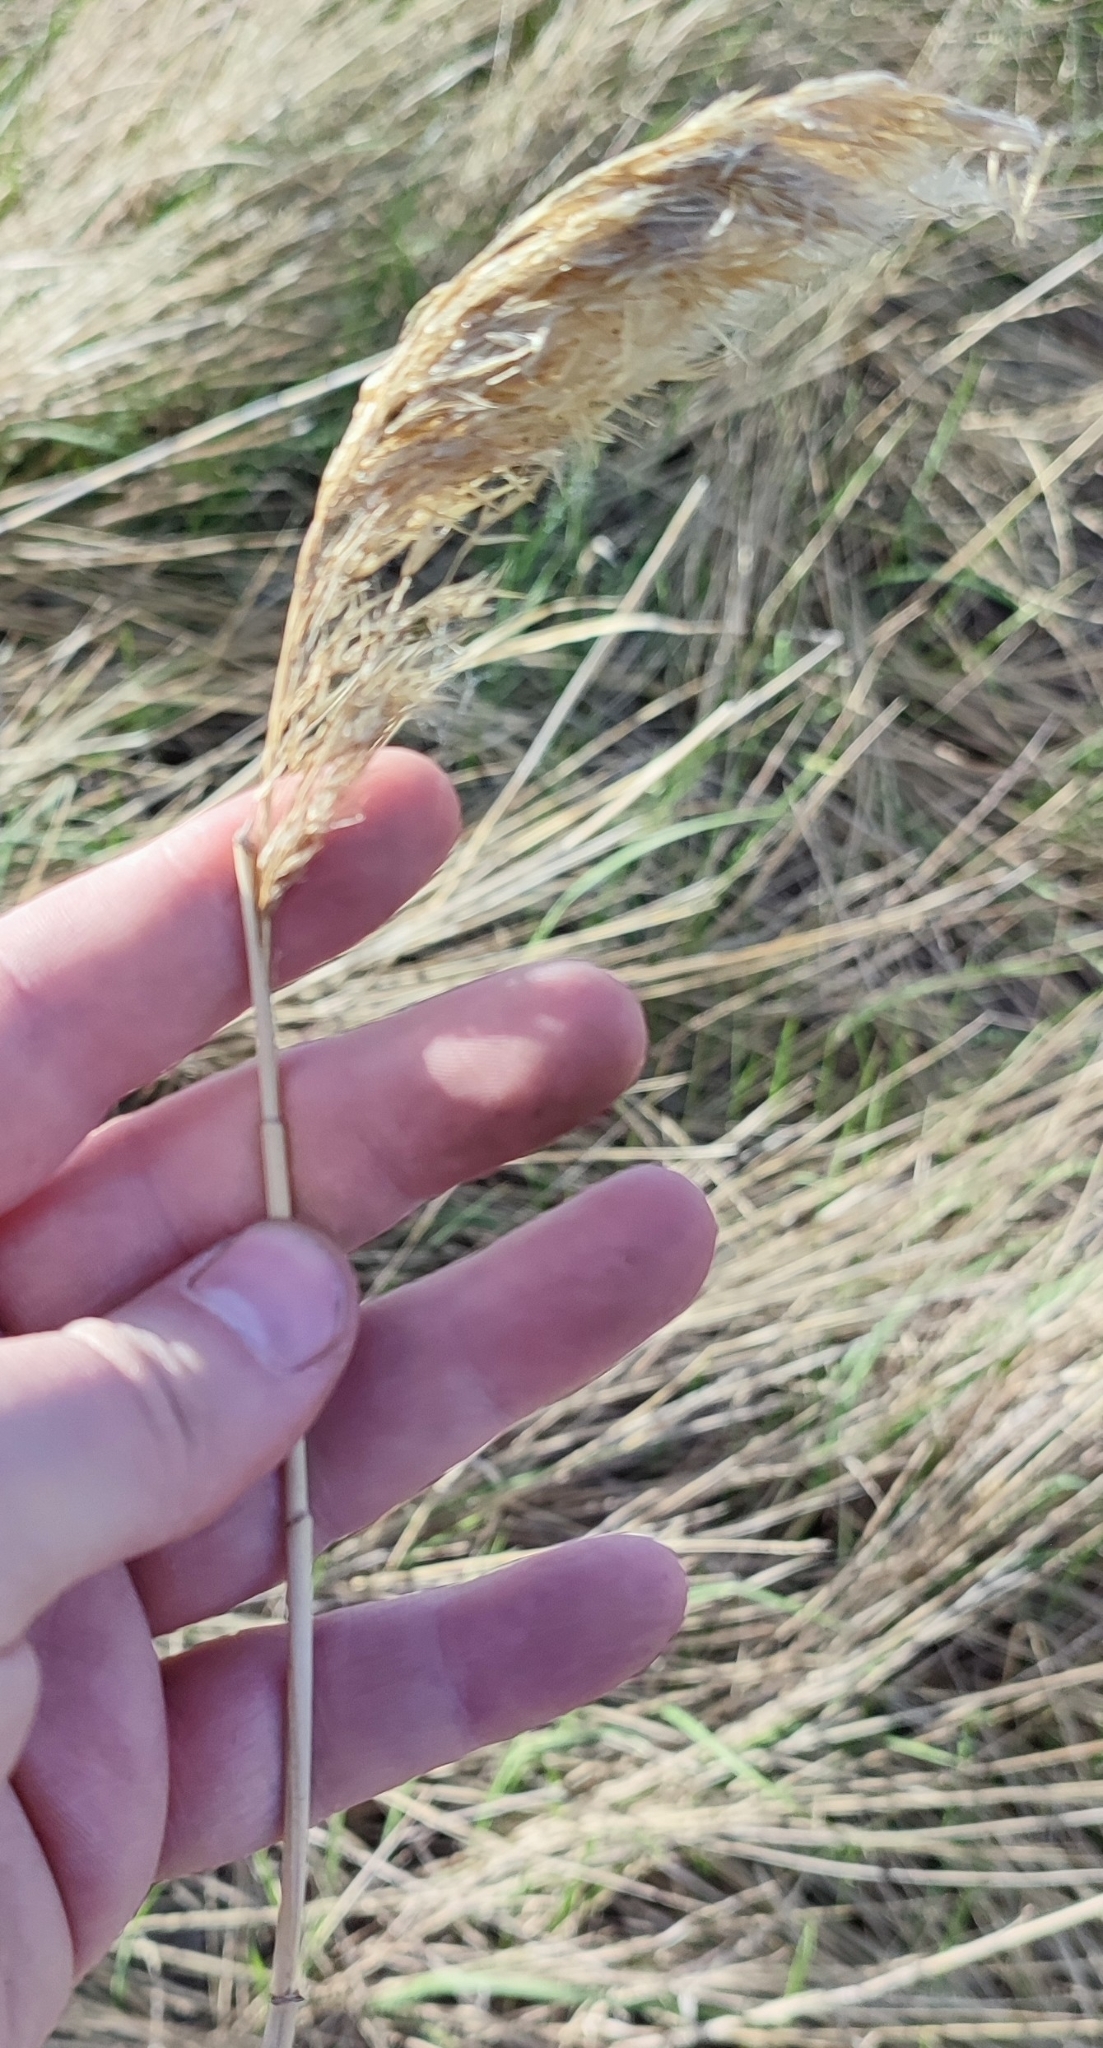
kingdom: Plantae
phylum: Tracheophyta
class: Liliopsida
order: Poales
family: Poaceae
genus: Phragmites
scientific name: Phragmites australis
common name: Common reed
